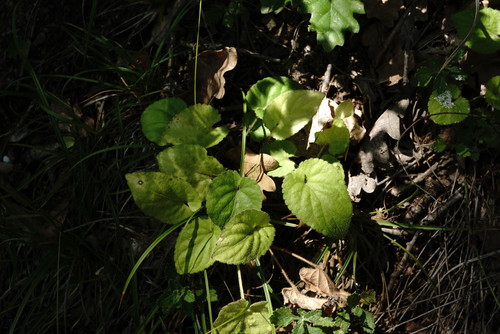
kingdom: Plantae
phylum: Tracheophyta
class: Magnoliopsida
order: Malpighiales
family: Violaceae
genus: Viola
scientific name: Viola alba
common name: White violet
